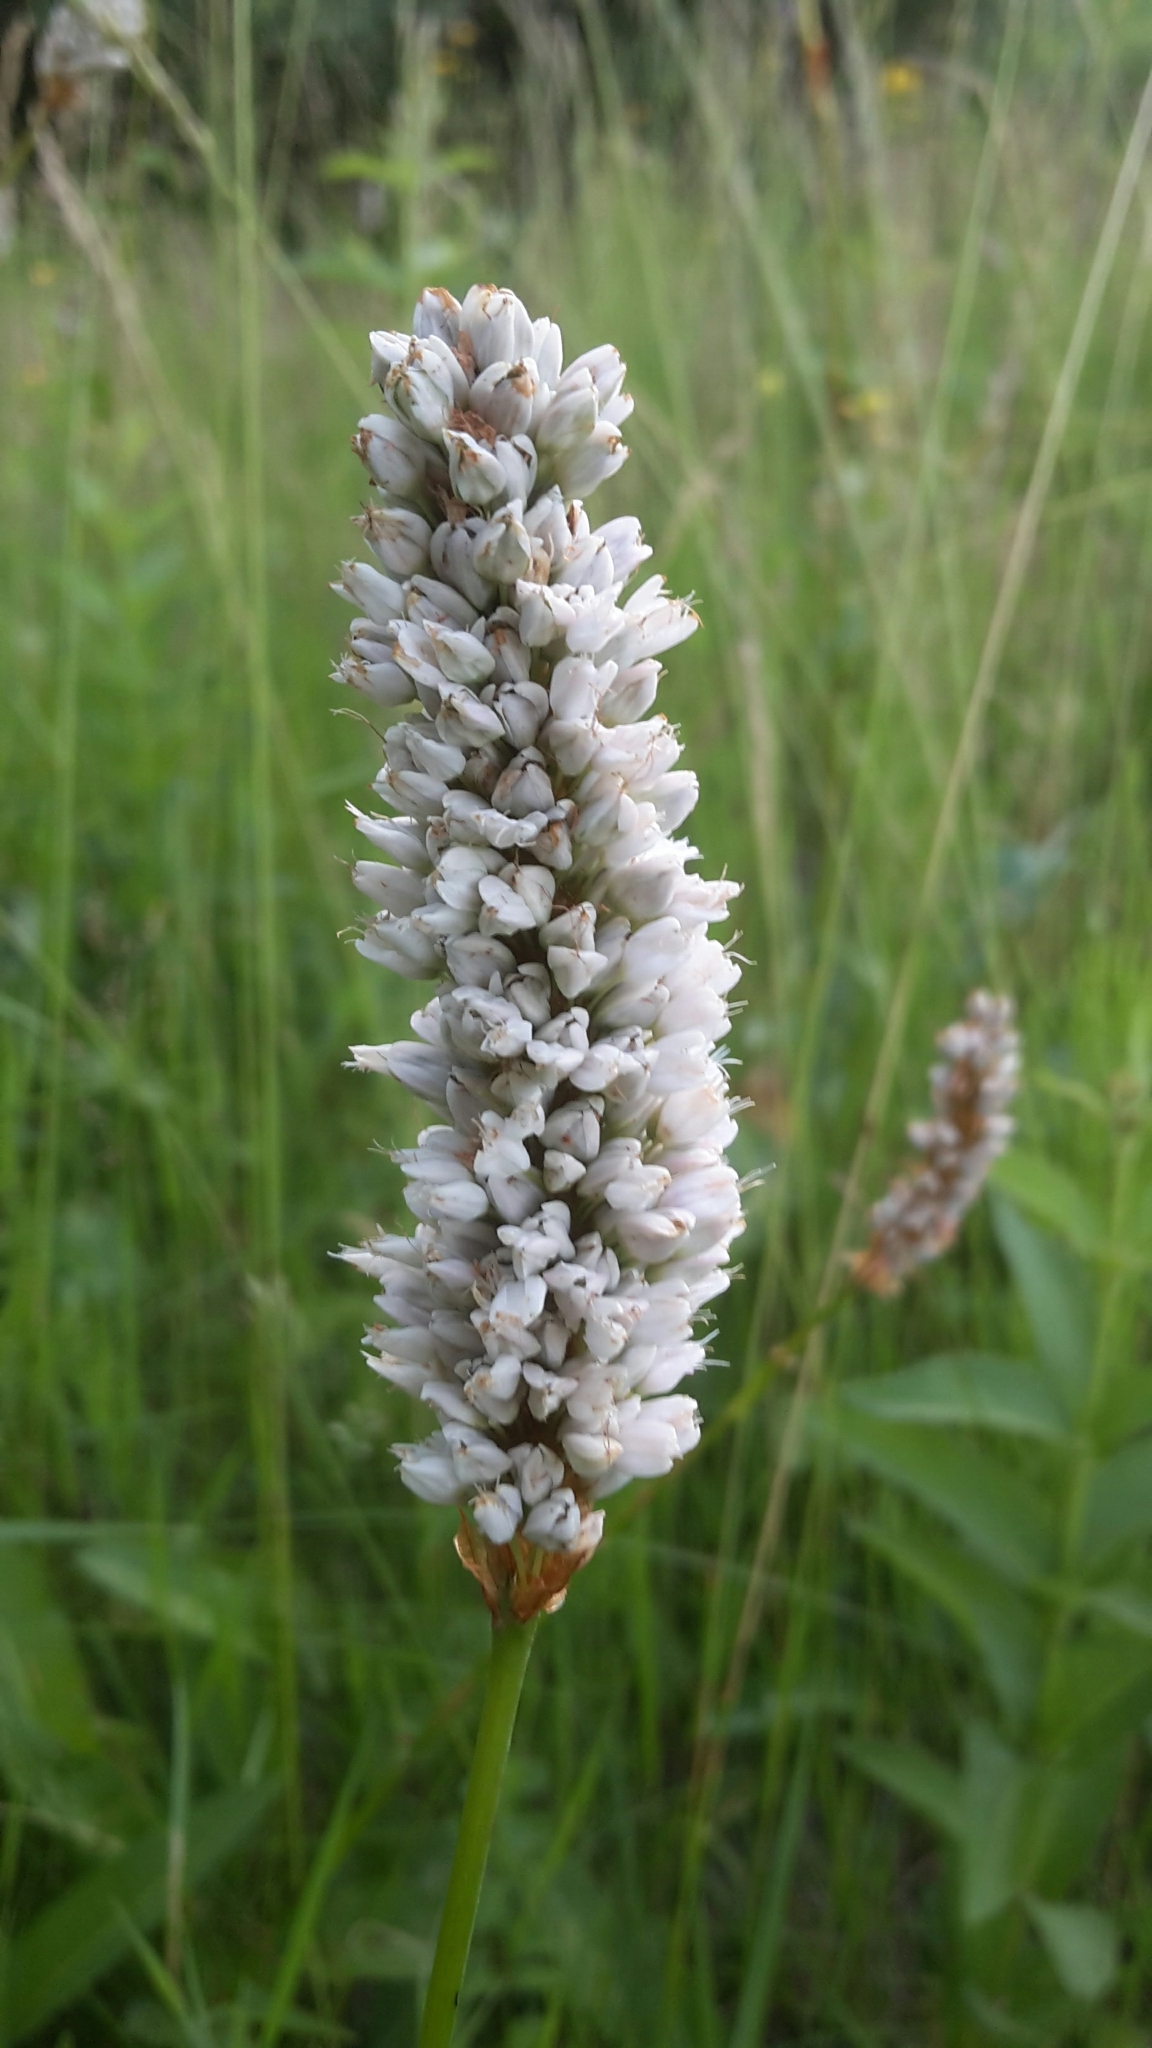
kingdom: Plantae
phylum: Tracheophyta
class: Magnoliopsida
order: Caryophyllales
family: Polygonaceae
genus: Bistorta
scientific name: Bistorta officinalis
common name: Common bistort
